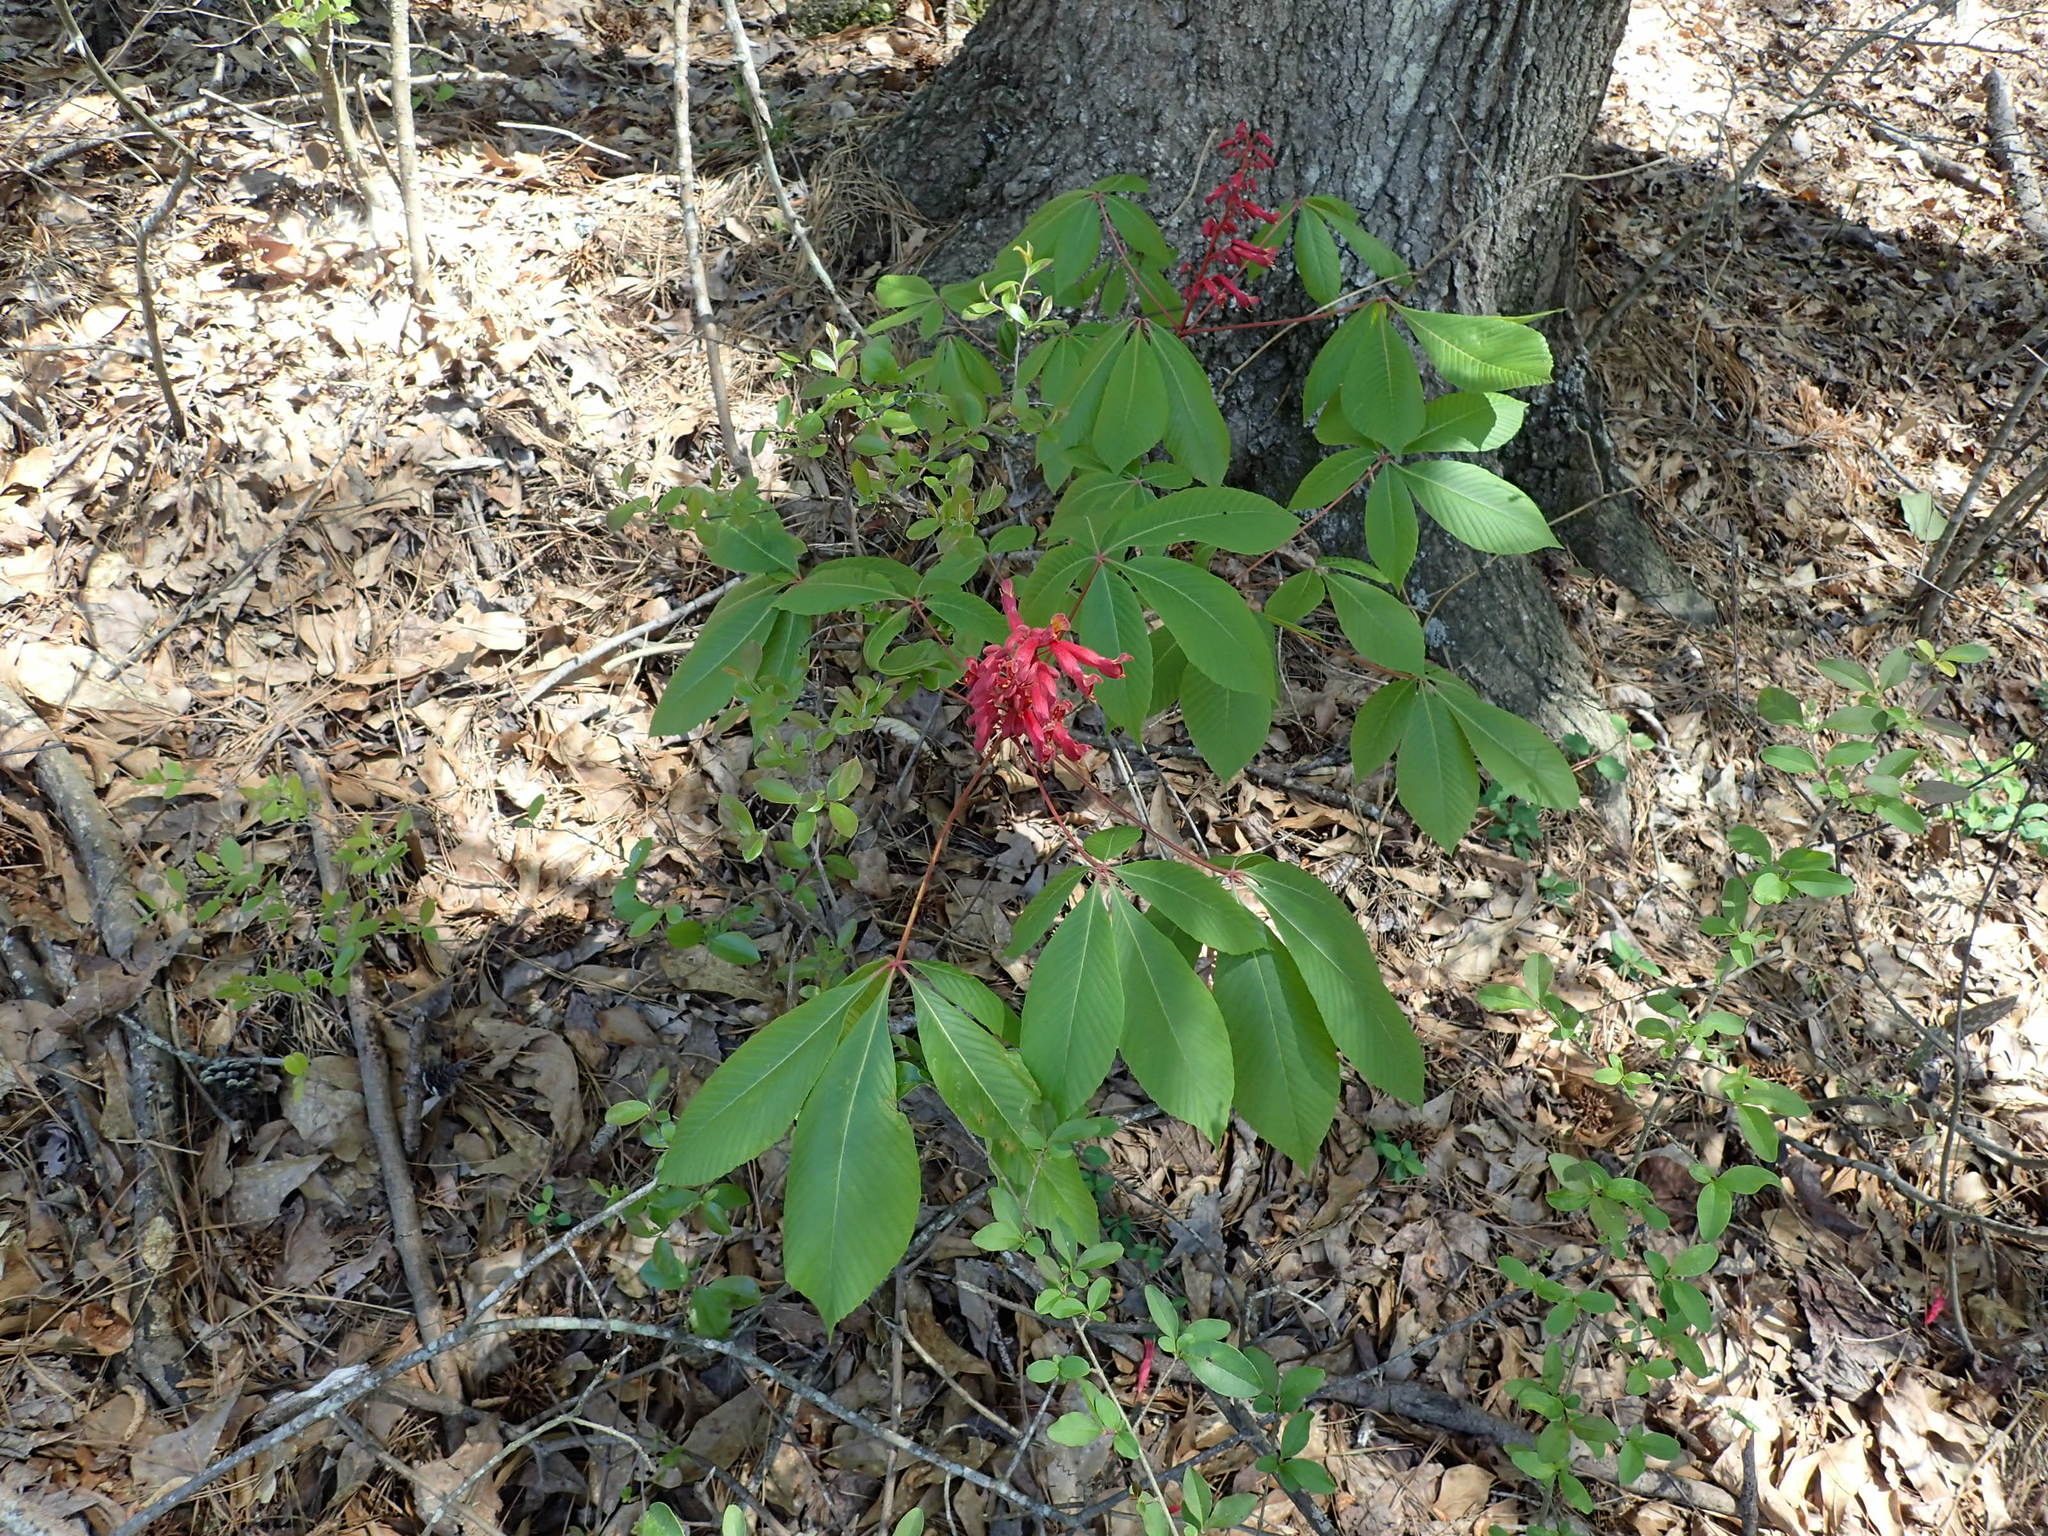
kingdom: Plantae
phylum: Tracheophyta
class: Magnoliopsida
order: Sapindales
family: Sapindaceae
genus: Aesculus
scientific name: Aesculus pavia
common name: Red buckeye
